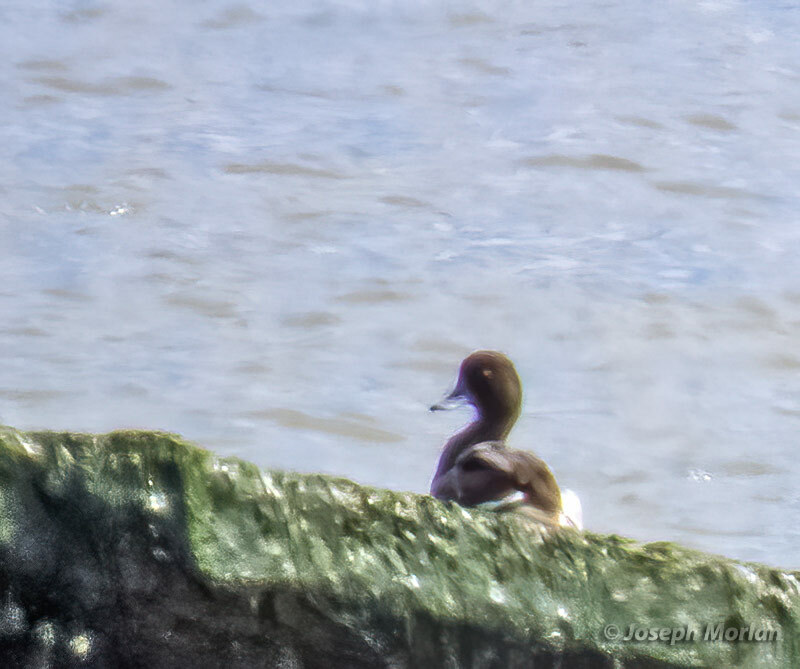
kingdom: Animalia
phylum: Chordata
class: Aves
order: Anseriformes
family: Anatidae
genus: Aythya
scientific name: Aythya marila
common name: Greater scaup
